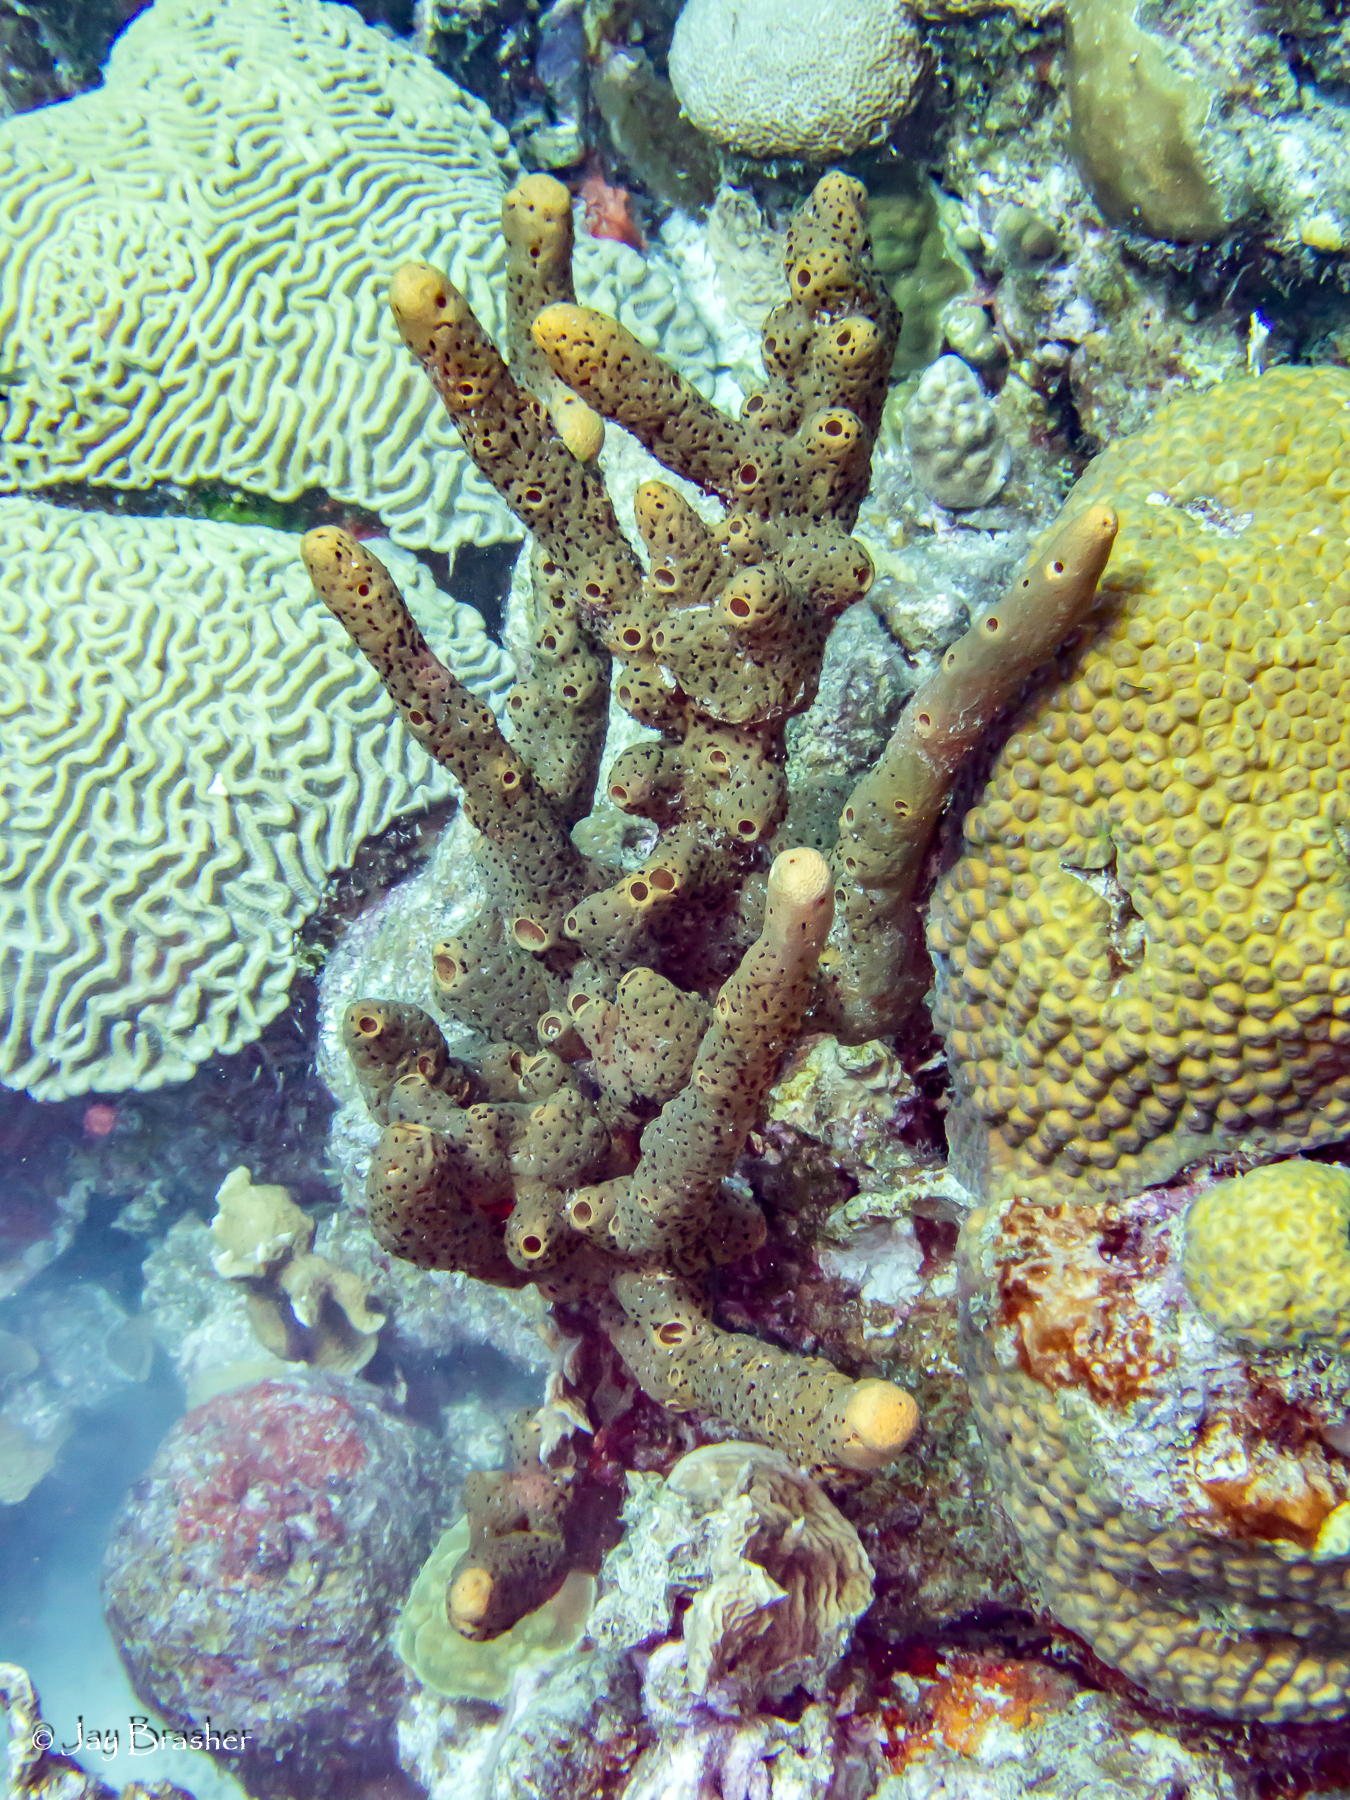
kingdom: Animalia
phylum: Cnidaria
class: Anthozoa
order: Scleractinia
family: Montastraeidae
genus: Montastraea
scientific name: Montastraea cavernosa
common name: Great star coral
